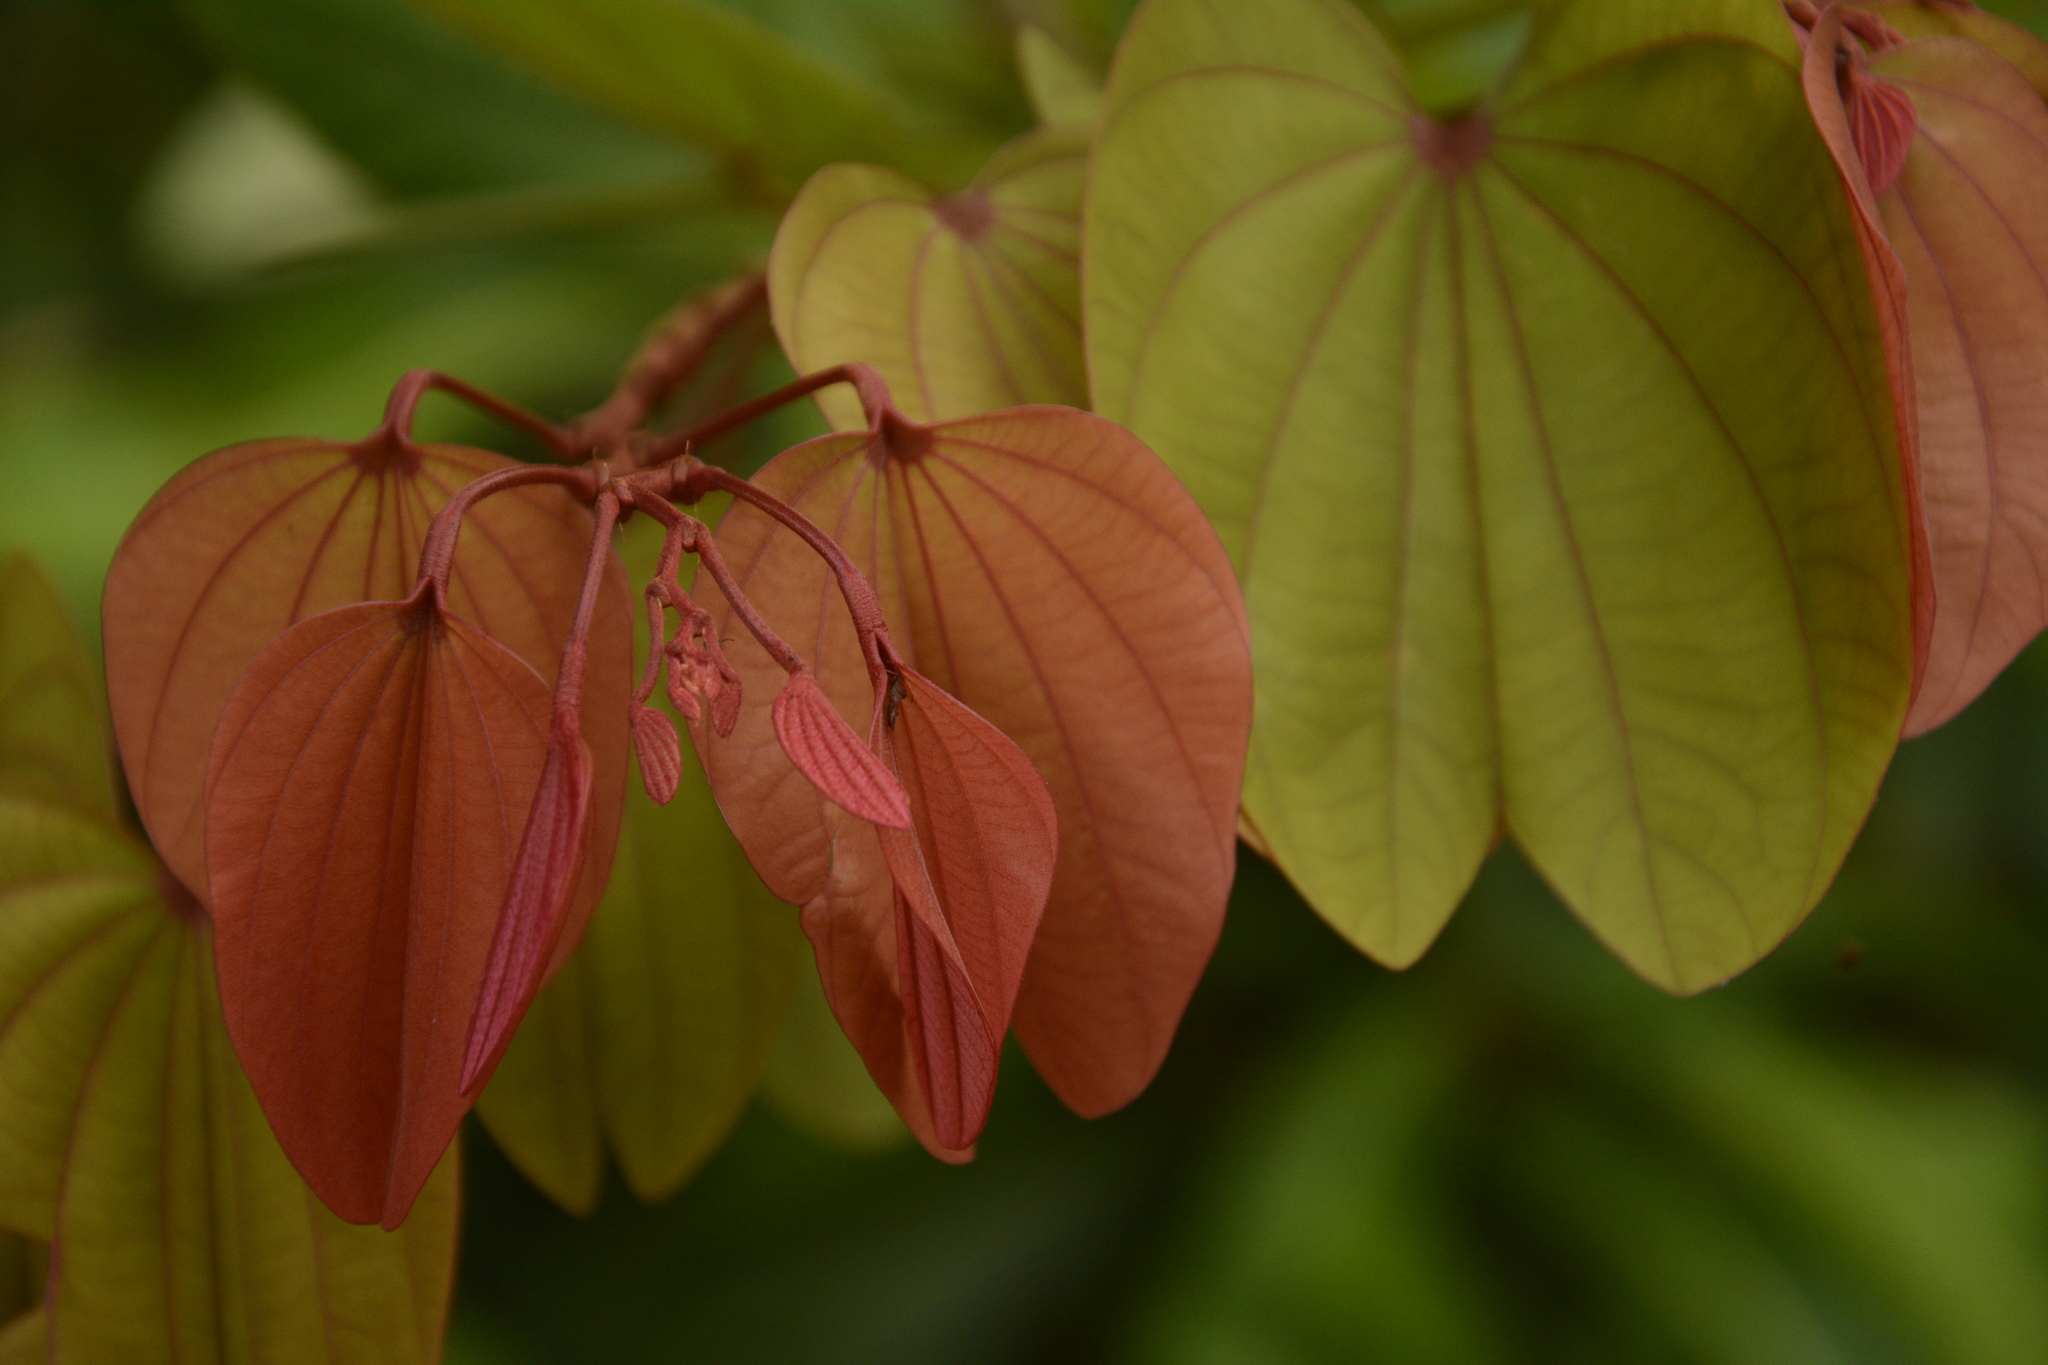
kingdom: Plantae
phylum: Tracheophyta
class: Magnoliopsida
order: Fabales
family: Fabaceae
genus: Bauhinia
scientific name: Bauhinia phoenicea
